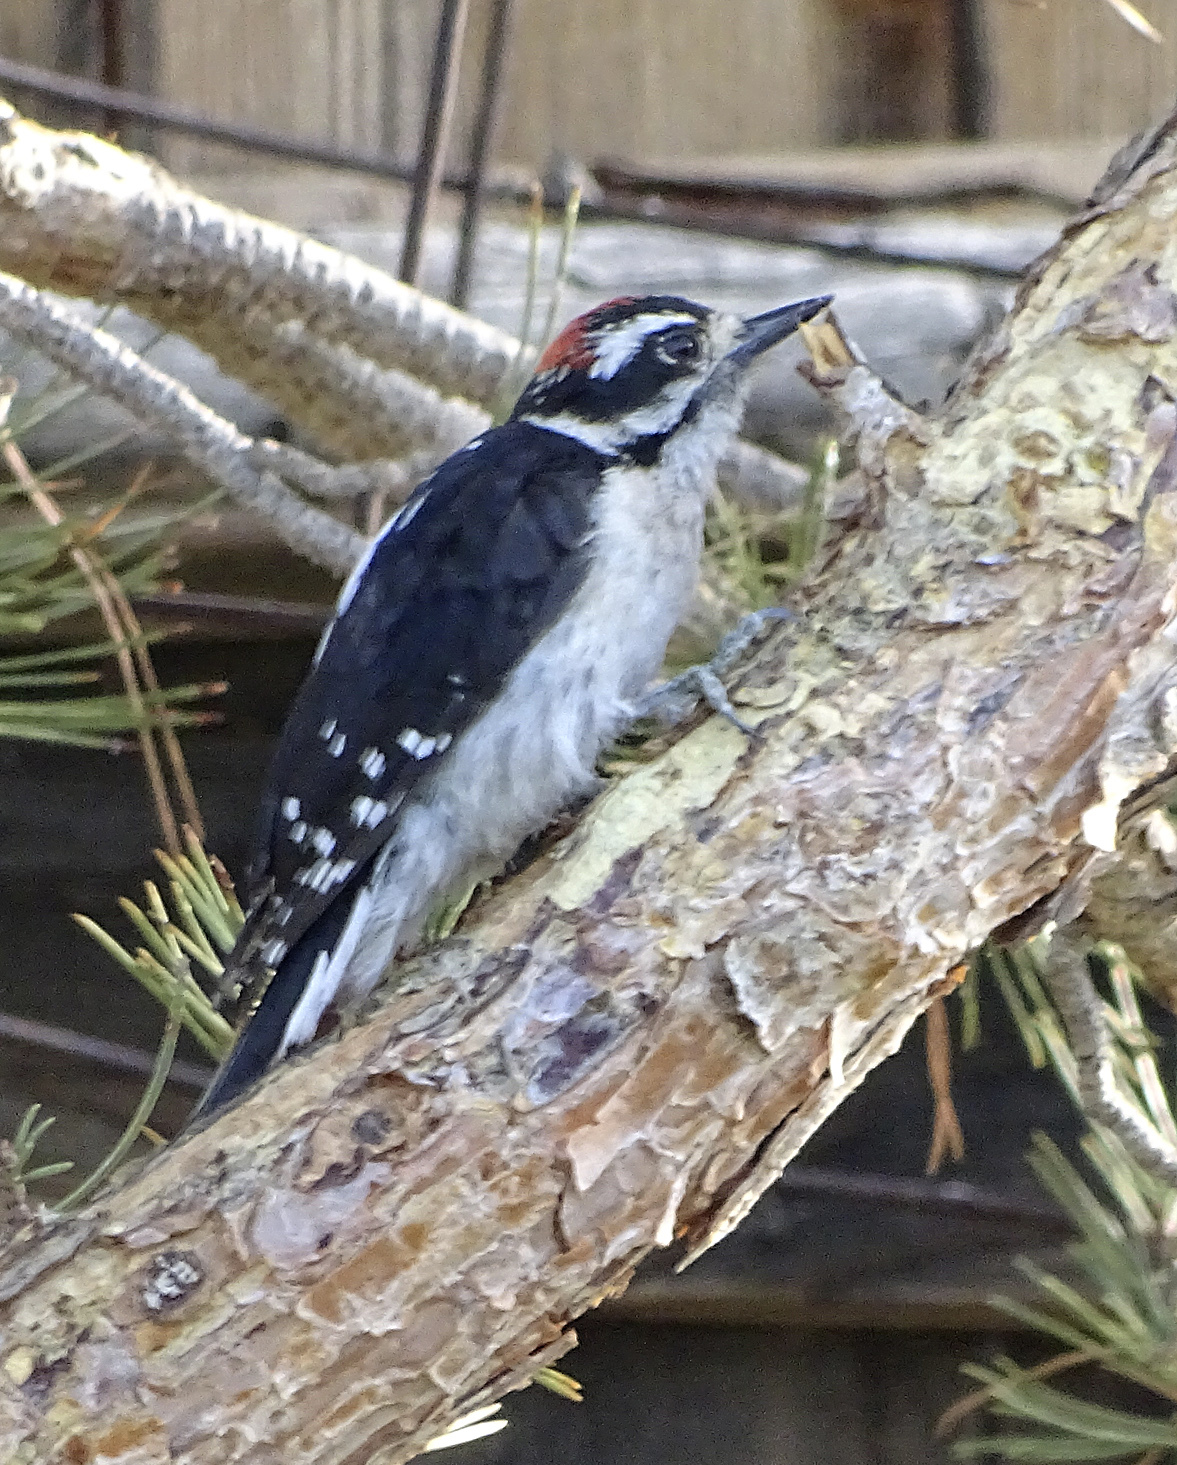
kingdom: Animalia
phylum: Chordata
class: Aves
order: Piciformes
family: Picidae
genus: Dryobates
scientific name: Dryobates pubescens
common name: Downy woodpecker
